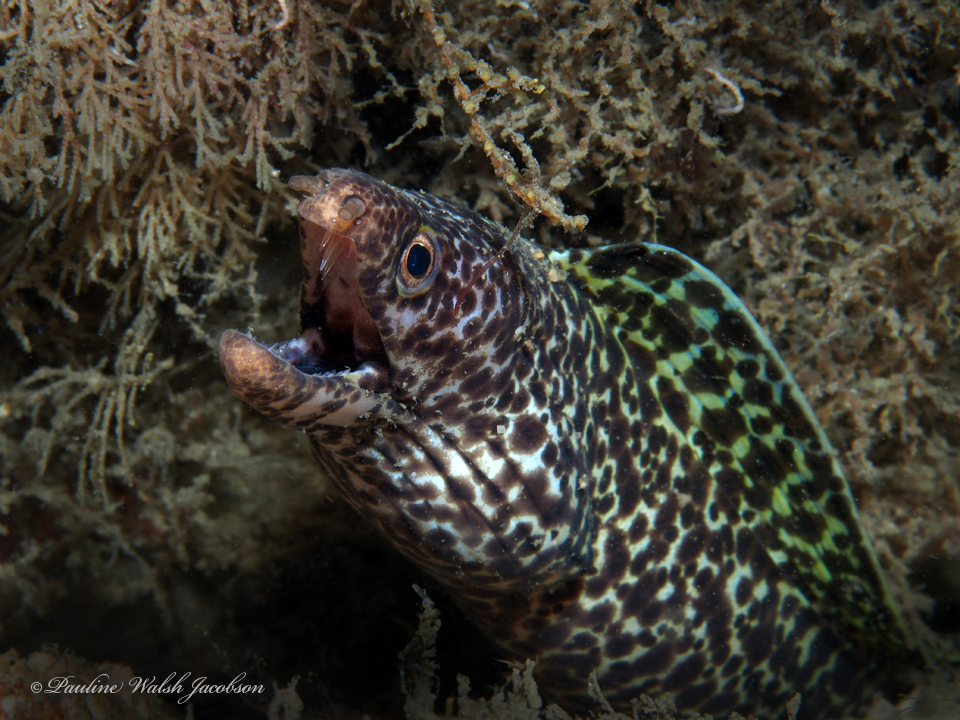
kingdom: Animalia
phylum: Chordata
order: Anguilliformes
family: Muraenidae
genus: Gymnothorax
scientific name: Gymnothorax moringa
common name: Spotted moray
